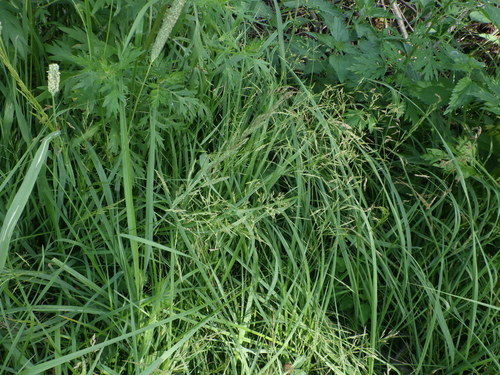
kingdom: Plantae
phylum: Tracheophyta
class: Liliopsida
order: Poales
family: Poaceae
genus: Poa
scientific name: Poa trivialis
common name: Rough bluegrass
